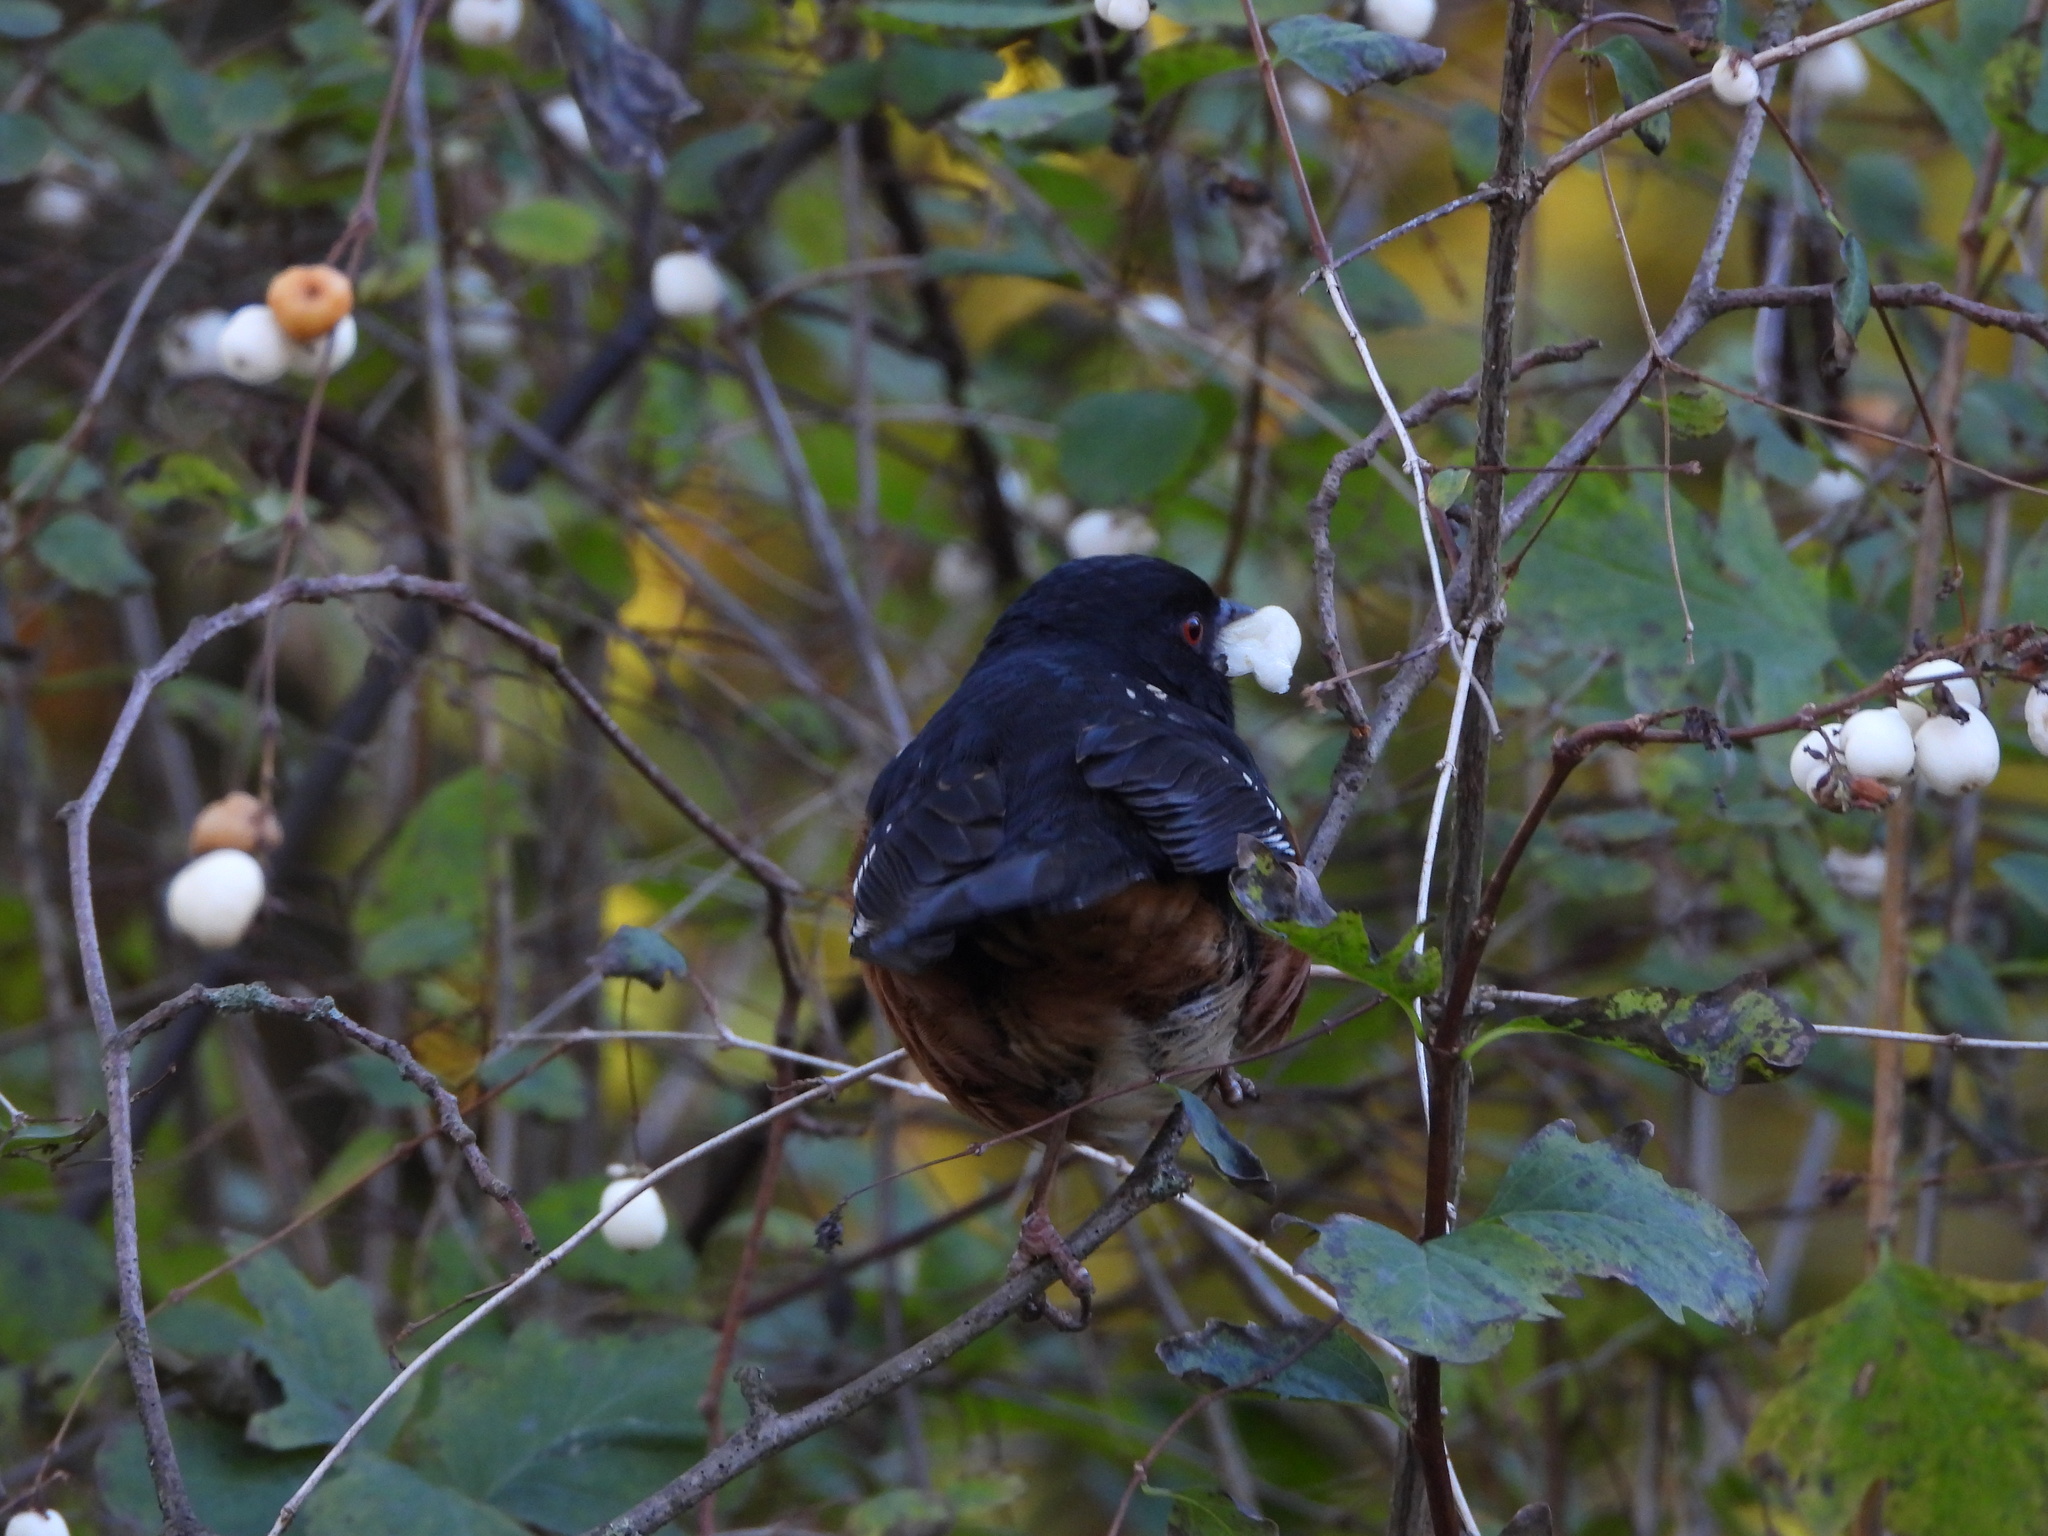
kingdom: Animalia
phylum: Chordata
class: Aves
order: Passeriformes
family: Passerellidae
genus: Pipilo
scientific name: Pipilo maculatus
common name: Spotted towhee
